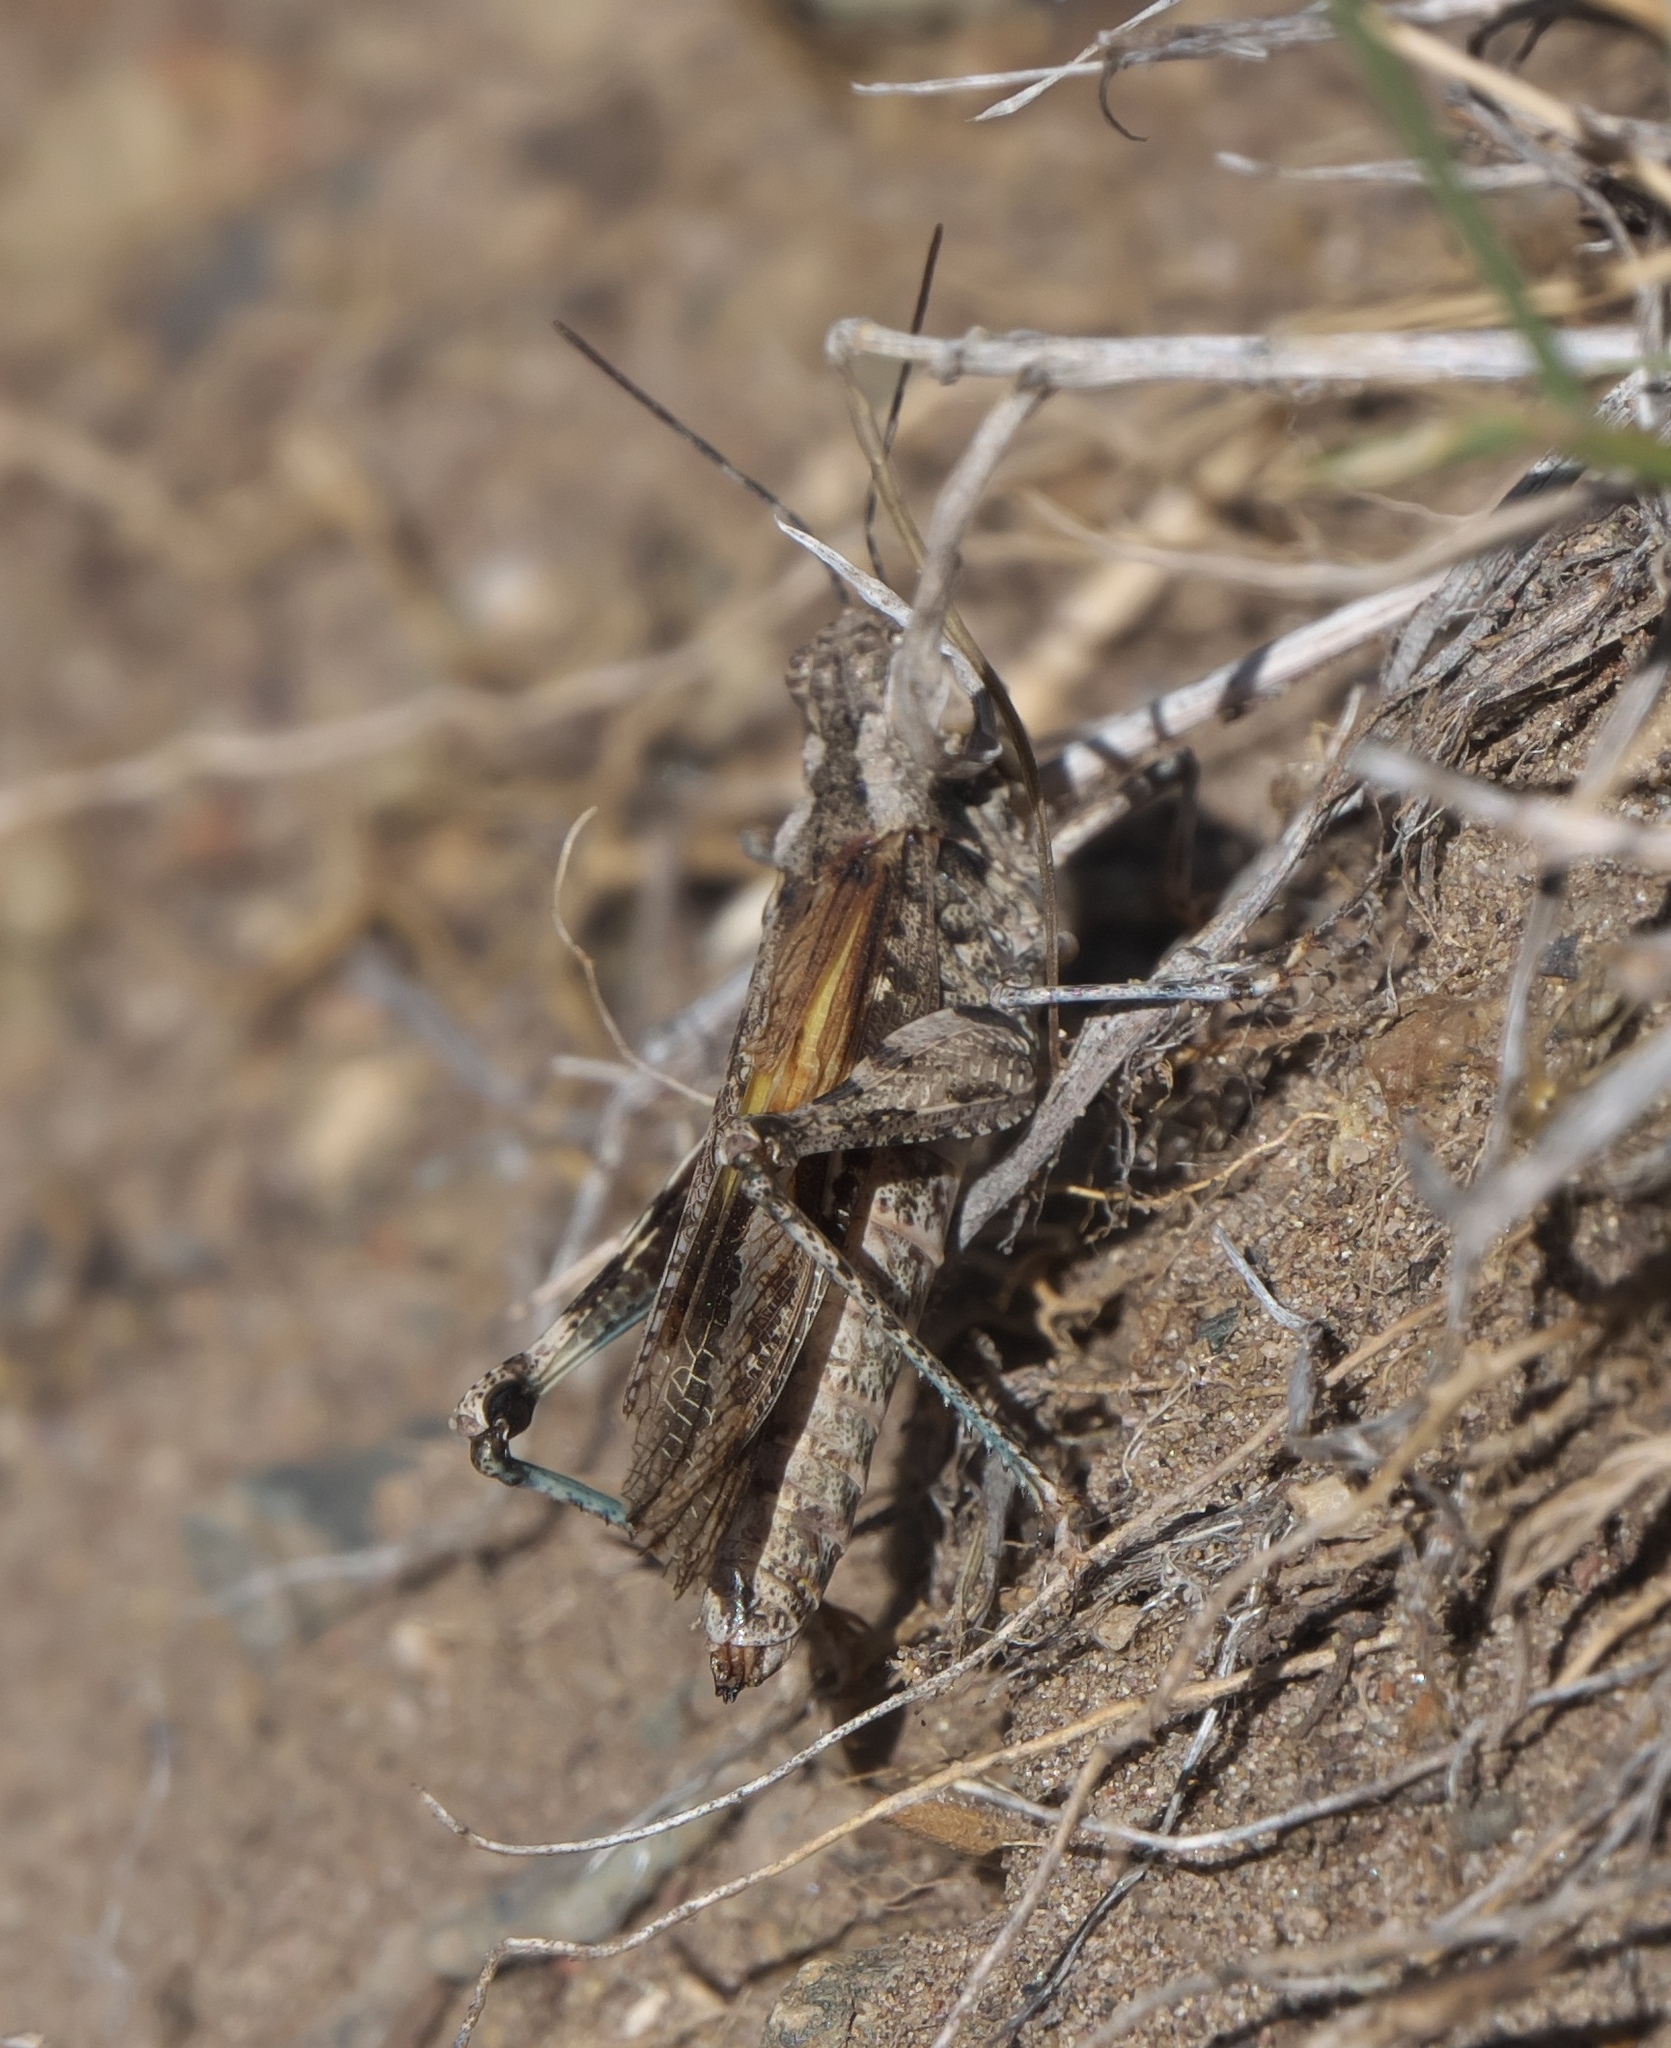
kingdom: Animalia
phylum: Arthropoda
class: Insecta
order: Orthoptera
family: Acrididae
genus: Derotmema
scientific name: Derotmema haydenii
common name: Hayden's grasshopper
